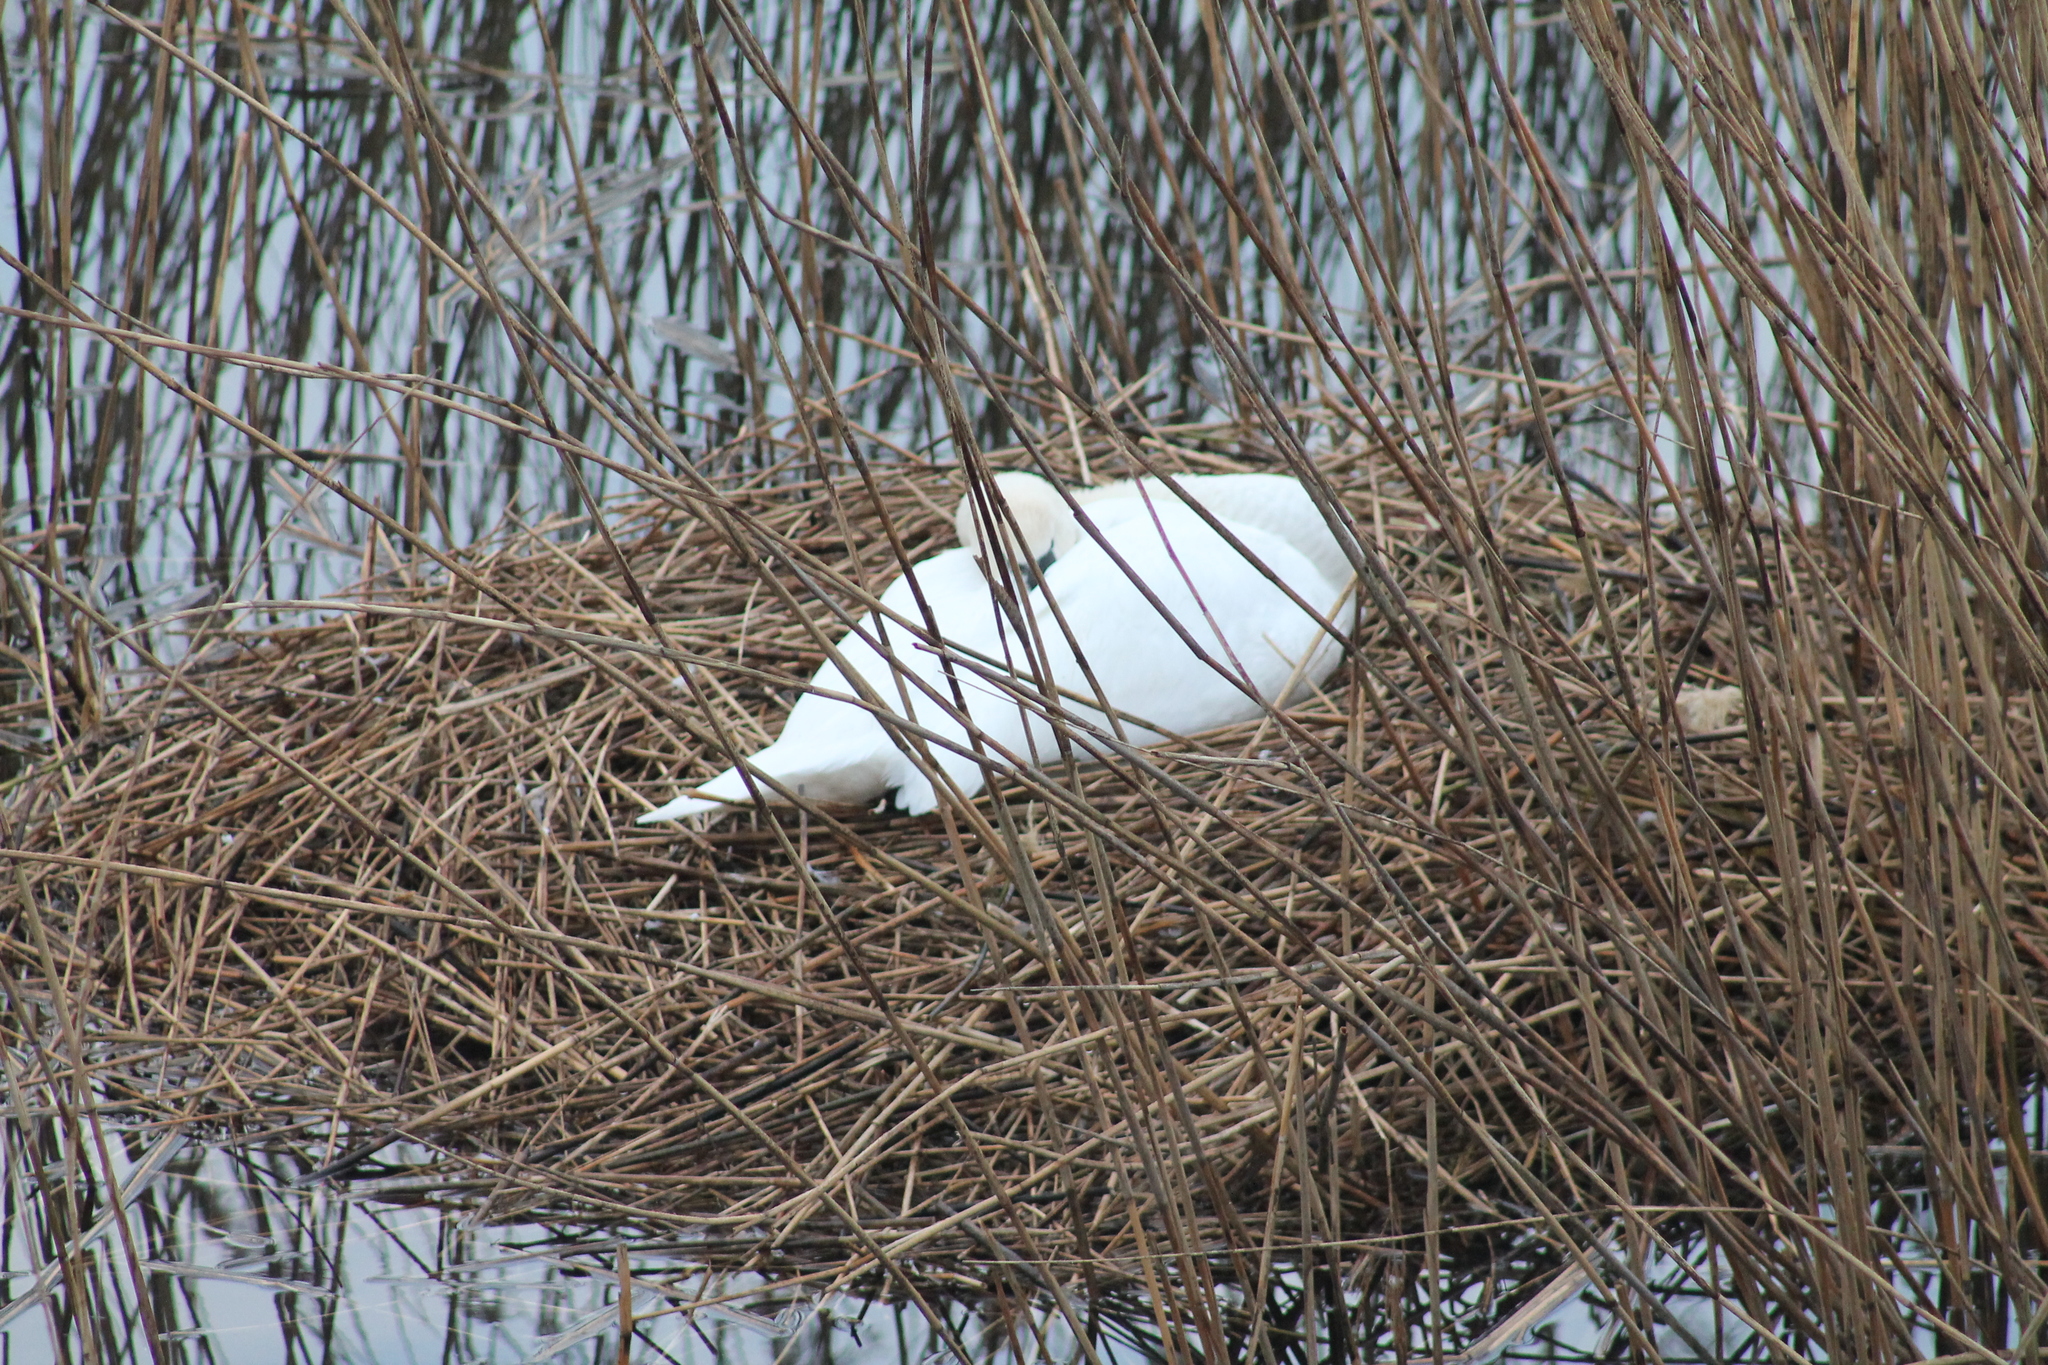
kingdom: Animalia
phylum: Chordata
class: Aves
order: Anseriformes
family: Anatidae
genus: Cygnus
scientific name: Cygnus olor
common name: Mute swan
